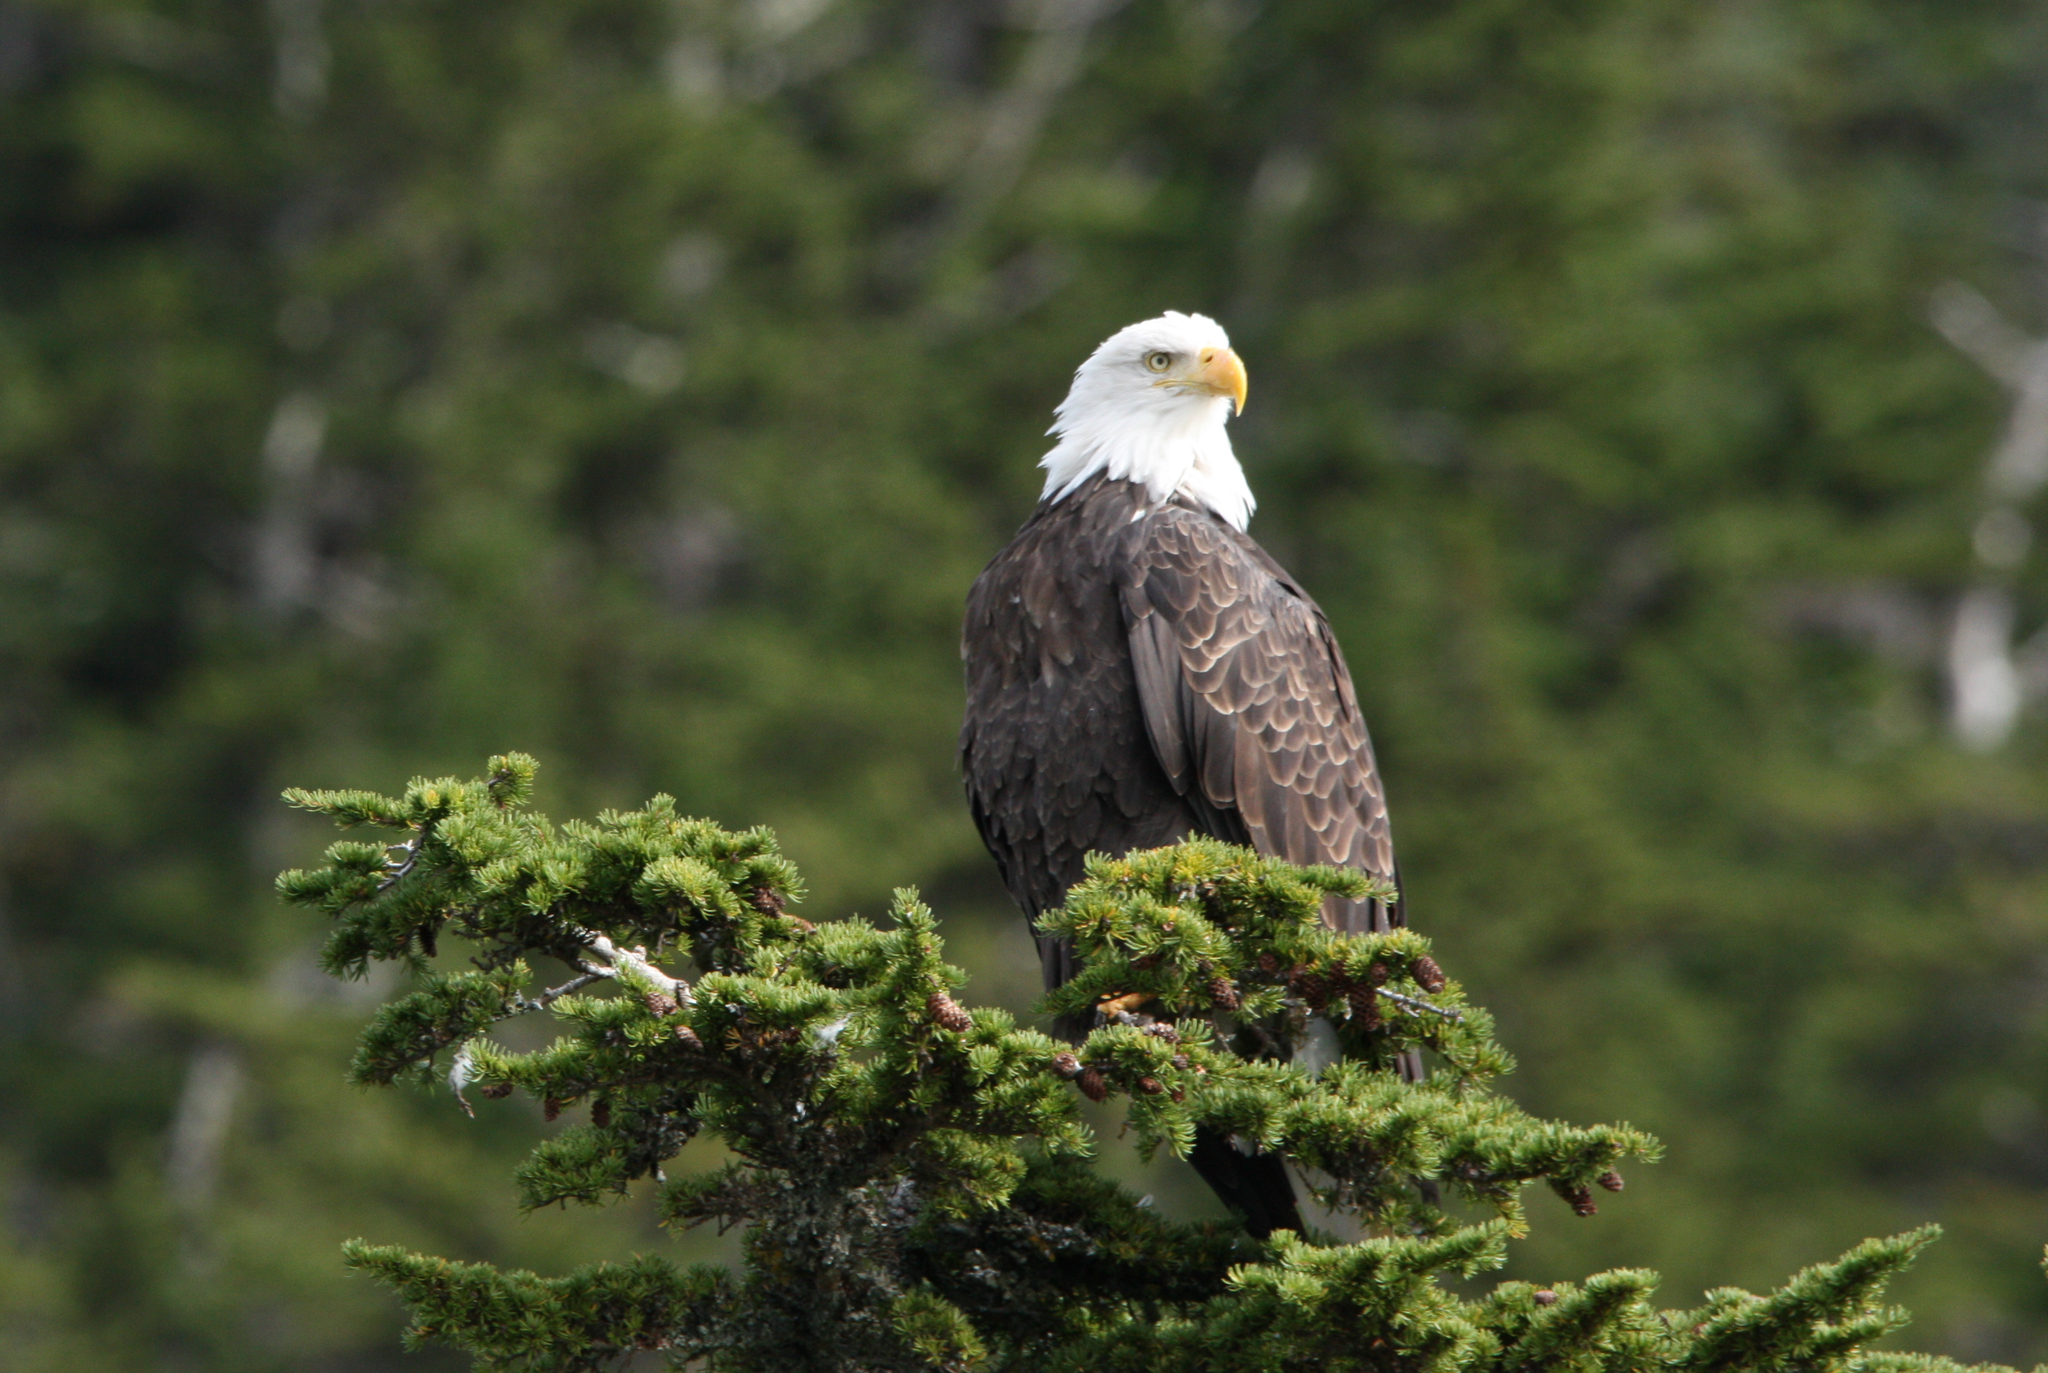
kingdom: Animalia
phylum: Chordata
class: Aves
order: Accipitriformes
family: Accipitridae
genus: Haliaeetus
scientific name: Haliaeetus leucocephalus
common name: Bald eagle
